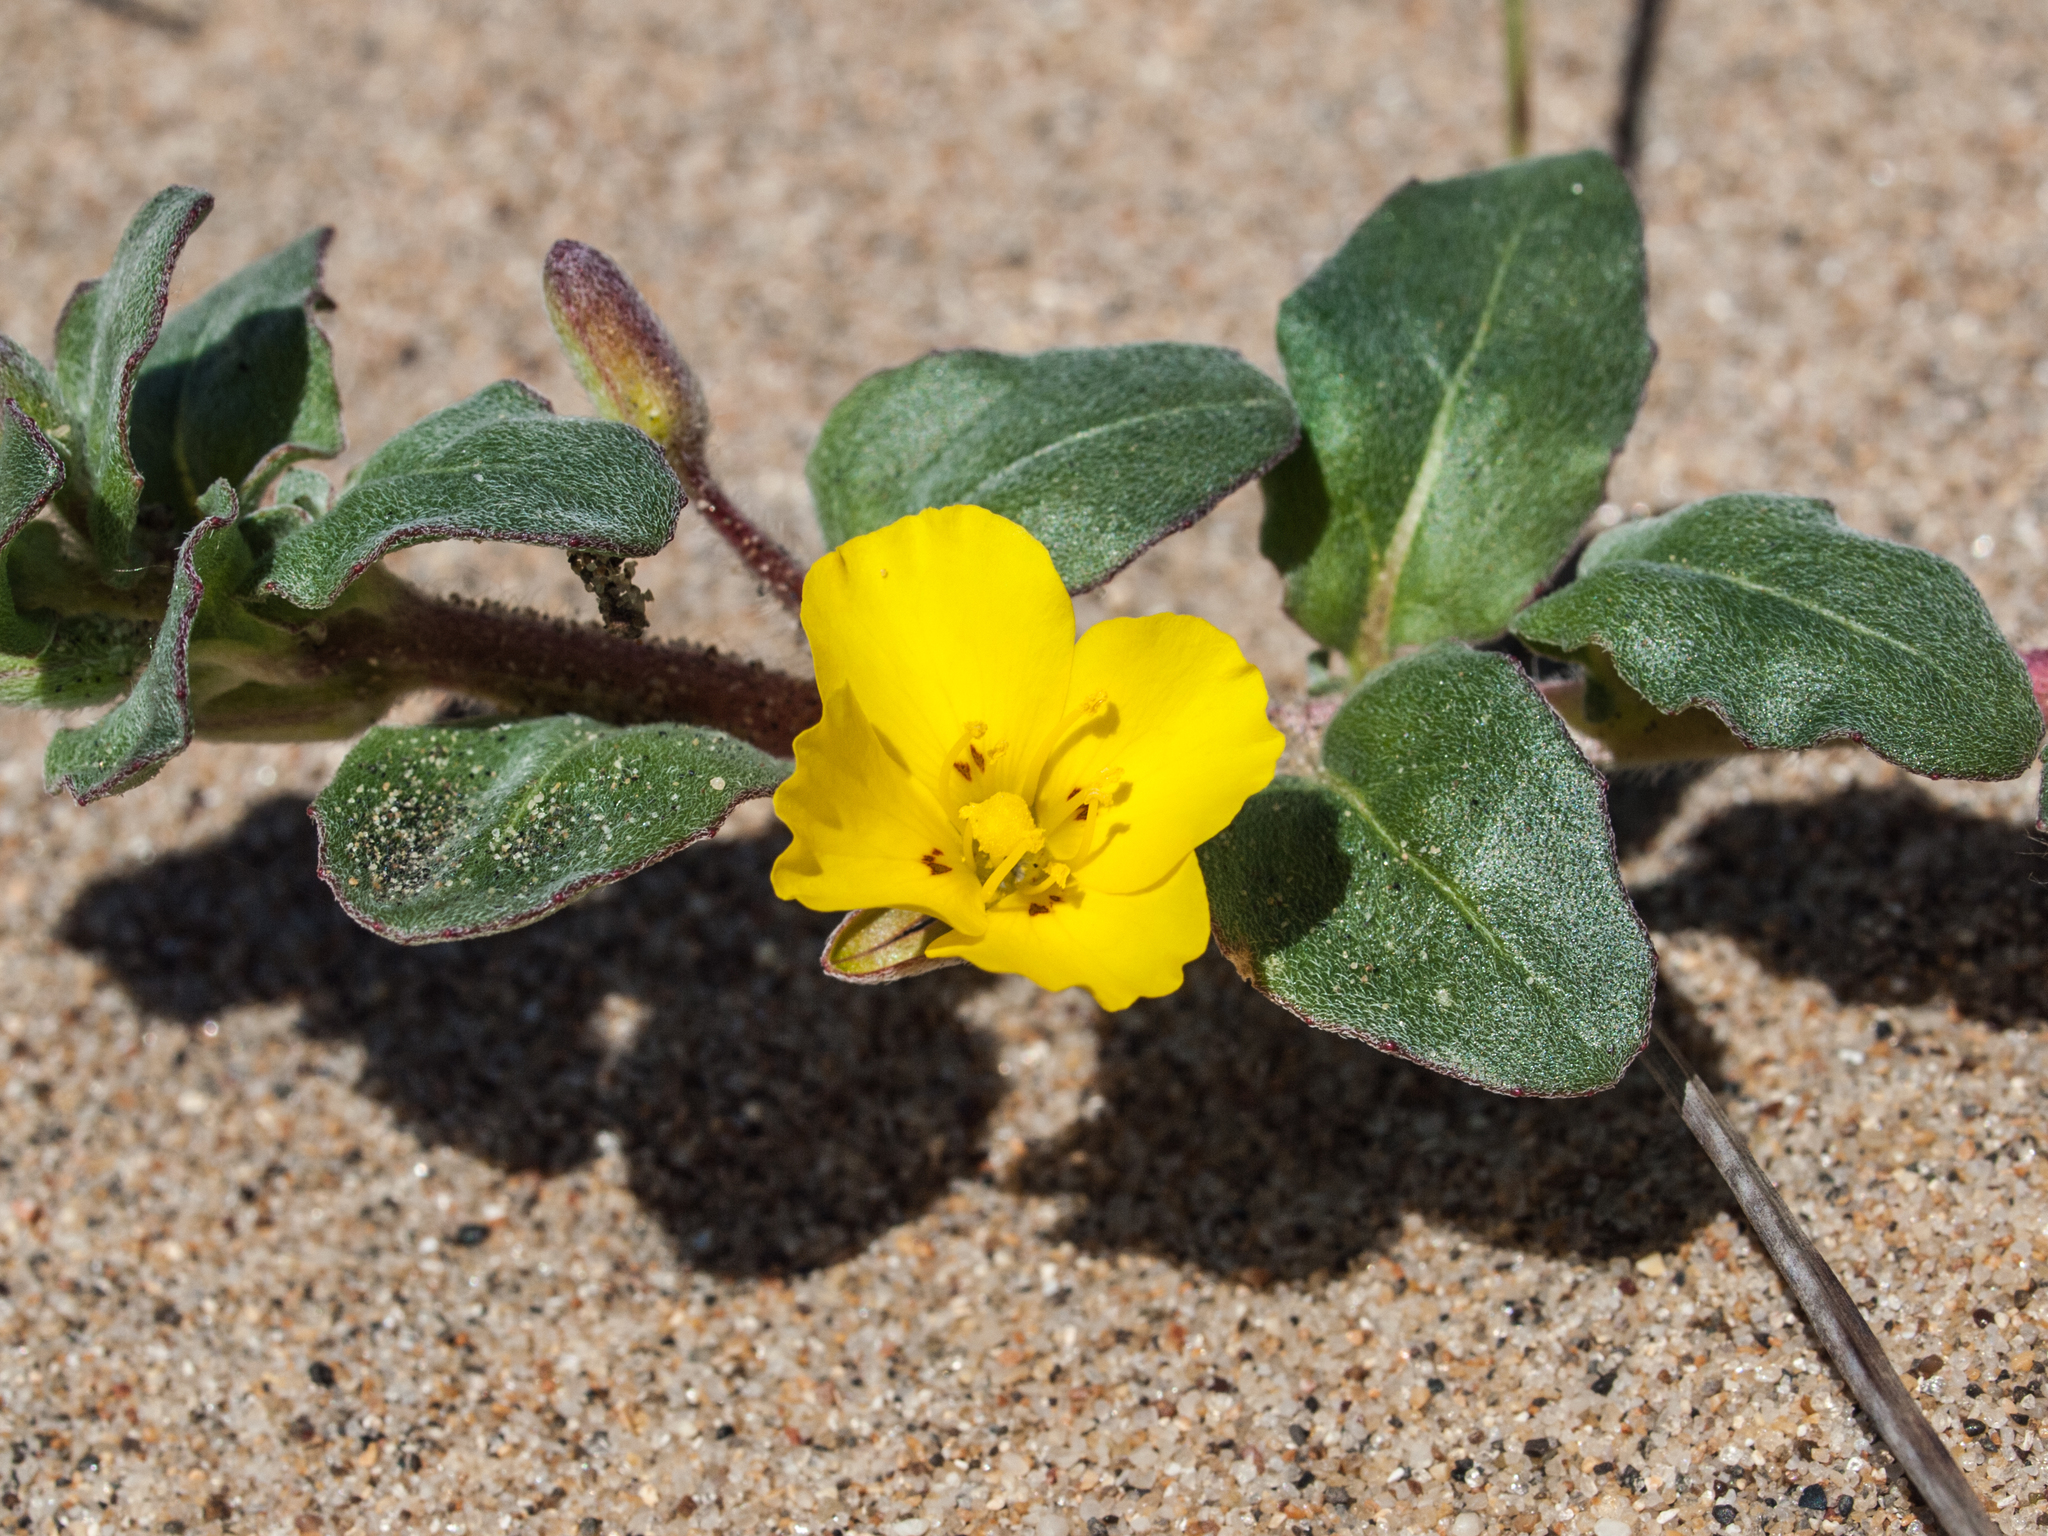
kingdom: Plantae
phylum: Tracheophyta
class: Magnoliopsida
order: Myrtales
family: Onagraceae
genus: Camissoniopsis
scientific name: Camissoniopsis cheiranthifolia
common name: Beach suncup
